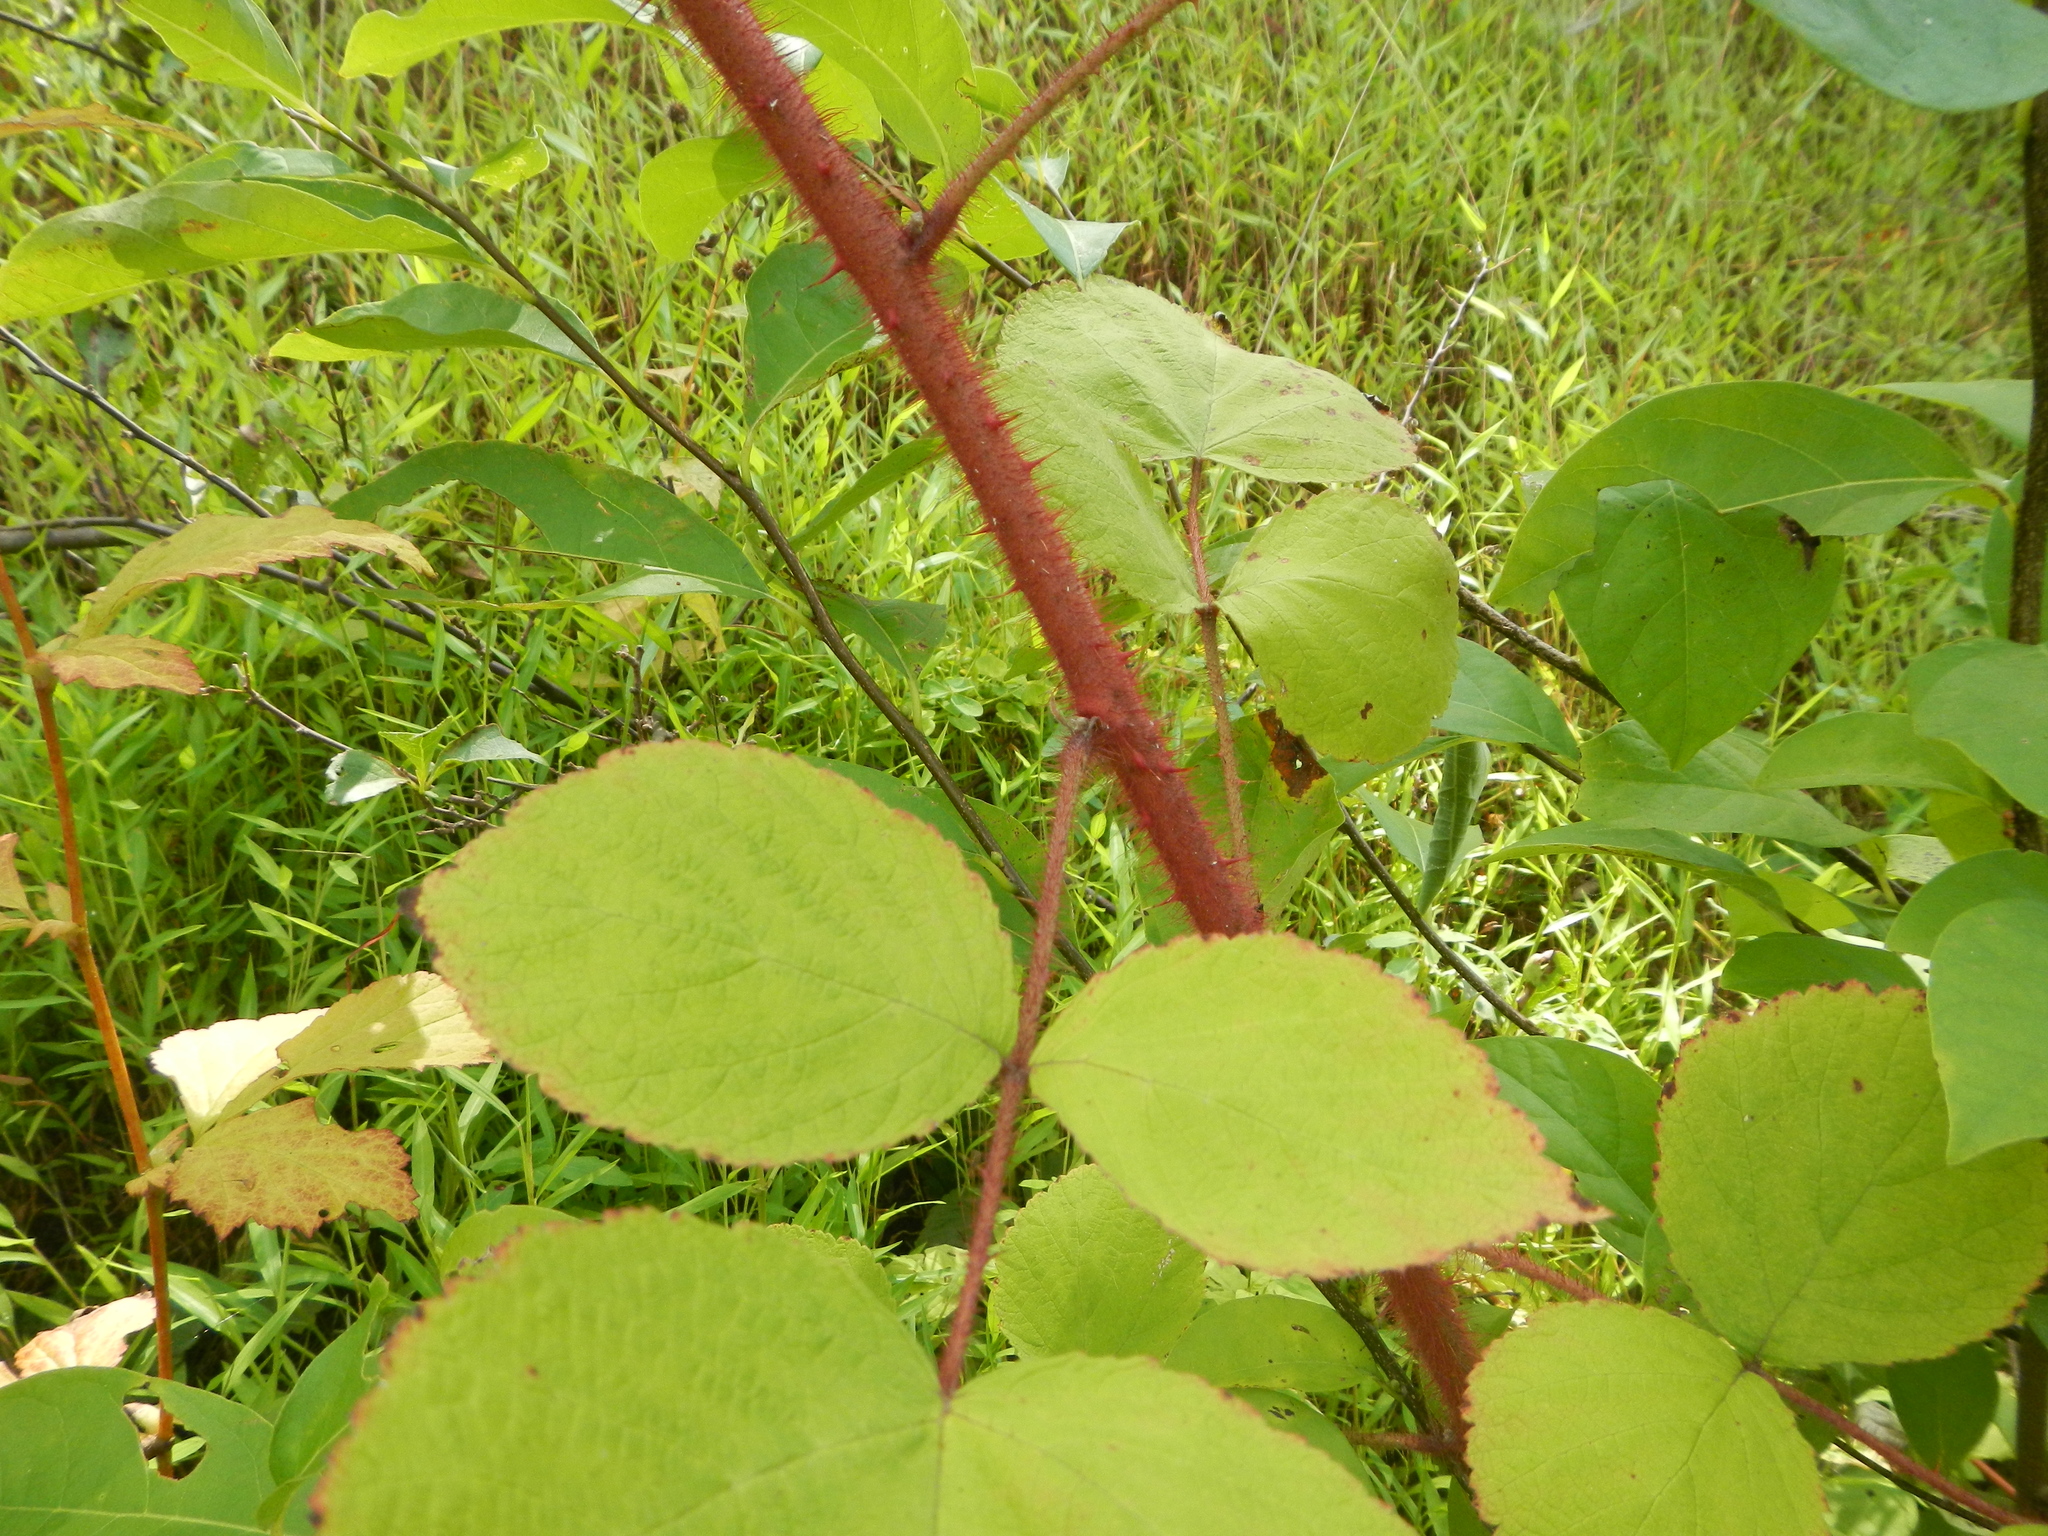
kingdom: Plantae
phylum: Tracheophyta
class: Magnoliopsida
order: Rosales
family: Rosaceae
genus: Rubus
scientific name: Rubus phoenicolasius
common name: Japanese wineberry
